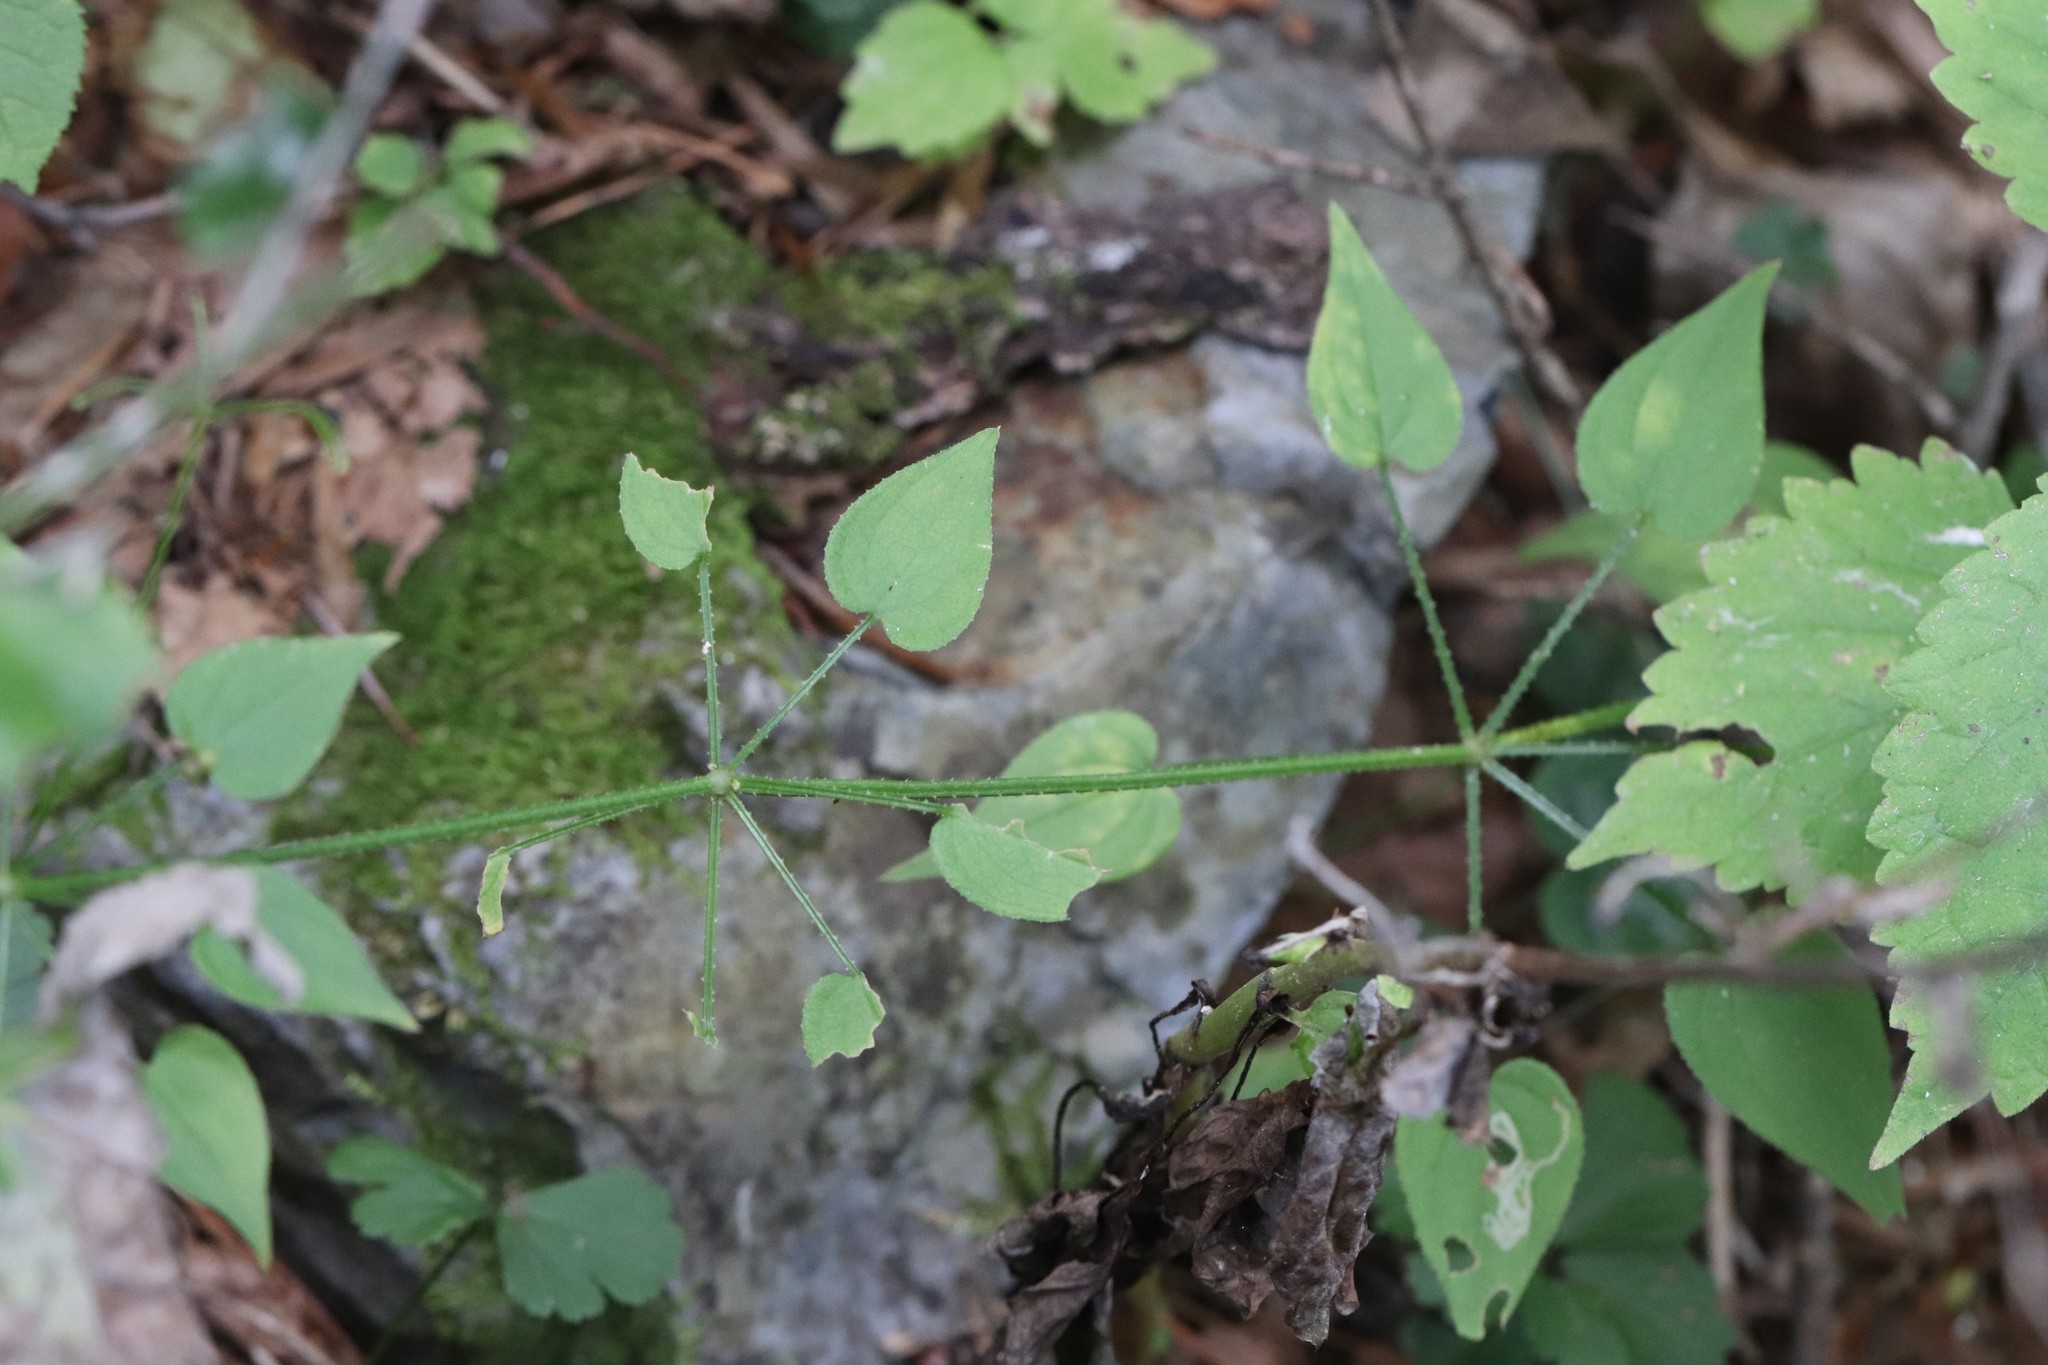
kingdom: Plantae
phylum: Tracheophyta
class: Magnoliopsida
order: Gentianales
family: Rubiaceae
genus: Rubia
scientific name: Rubia cordifolia
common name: Indian madder
